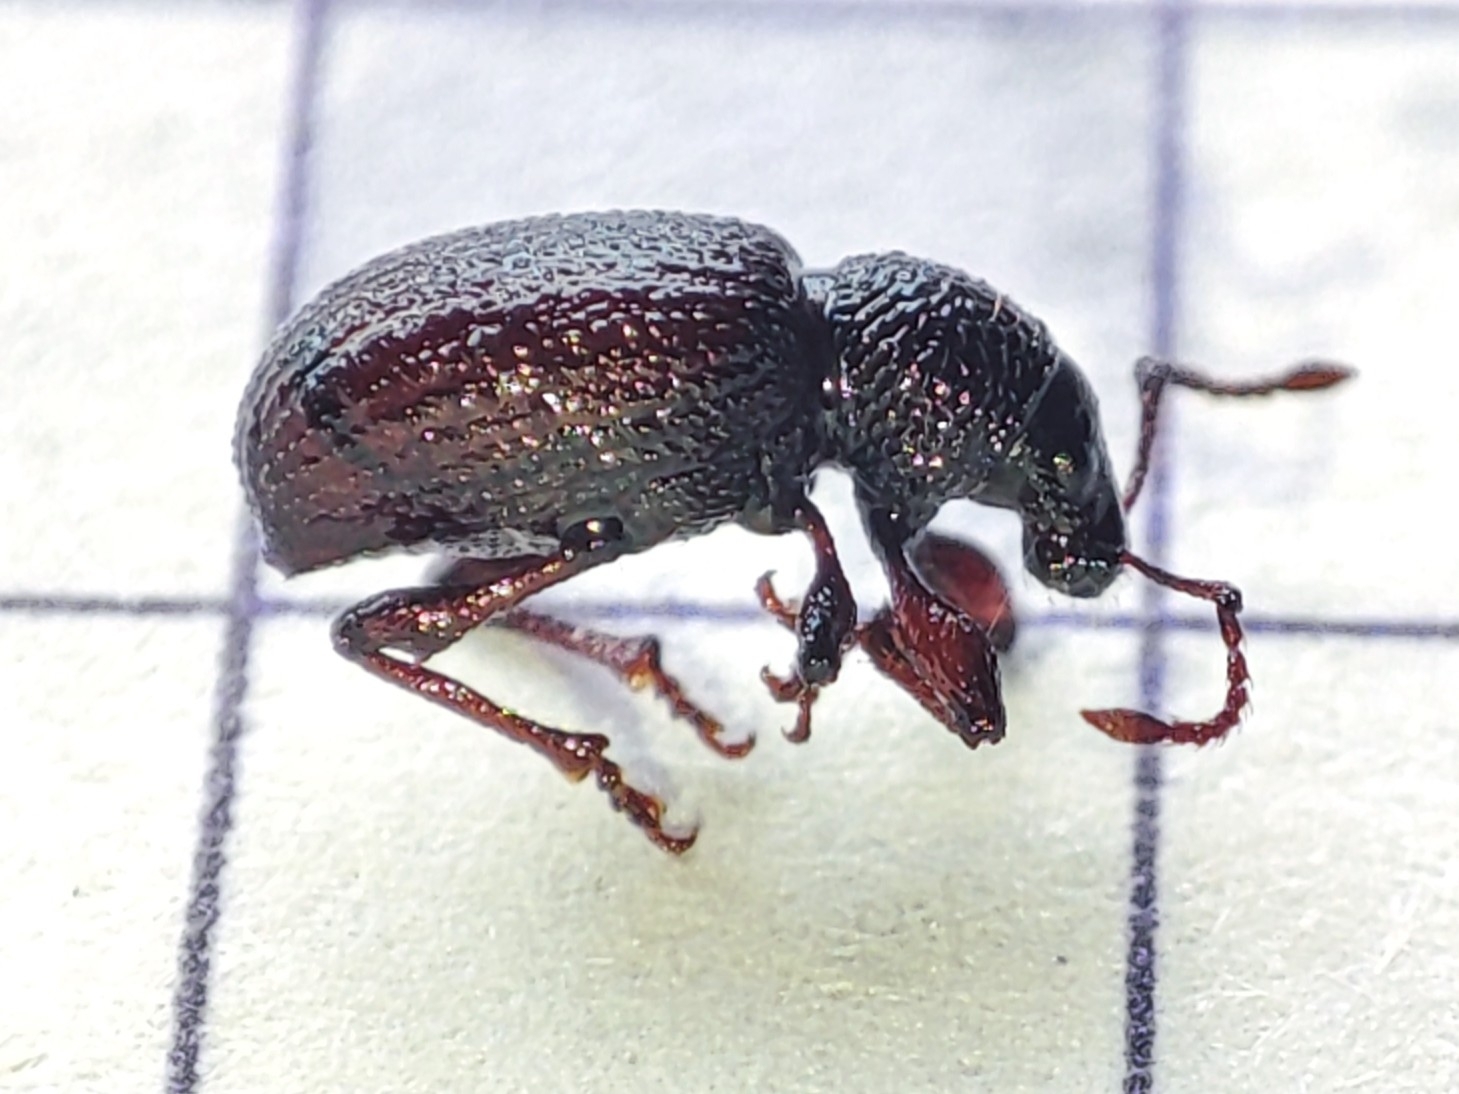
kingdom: Animalia
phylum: Arthropoda
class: Insecta
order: Coleoptera
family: Curculionidae
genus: Otiorhynchus
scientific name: Otiorhynchus ovatus
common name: Strawberry root weevil
